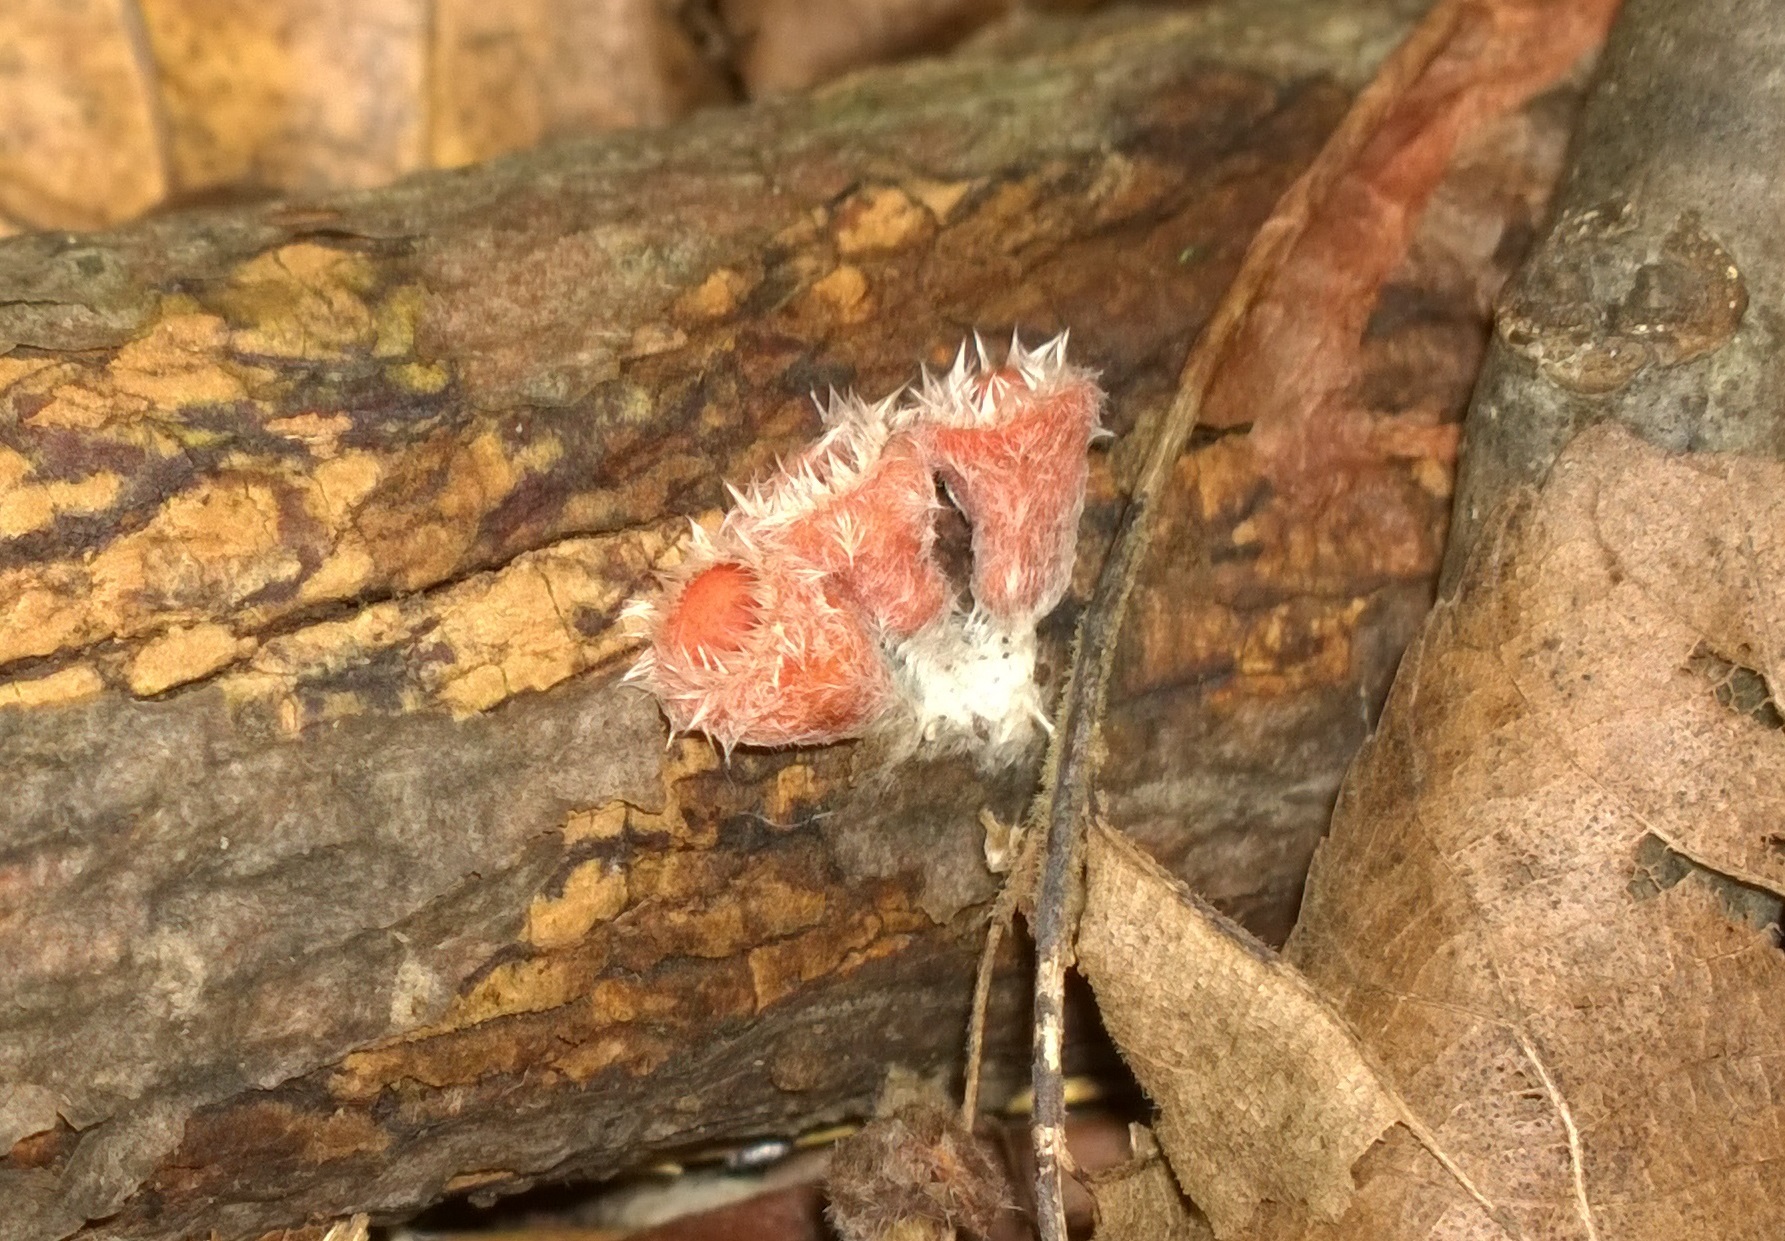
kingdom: Fungi
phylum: Ascomycota
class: Pezizomycetes
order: Pezizales
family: Sarcoscyphaceae
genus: Microstoma
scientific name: Microstoma floccosum
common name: Pink fringed faery cup
